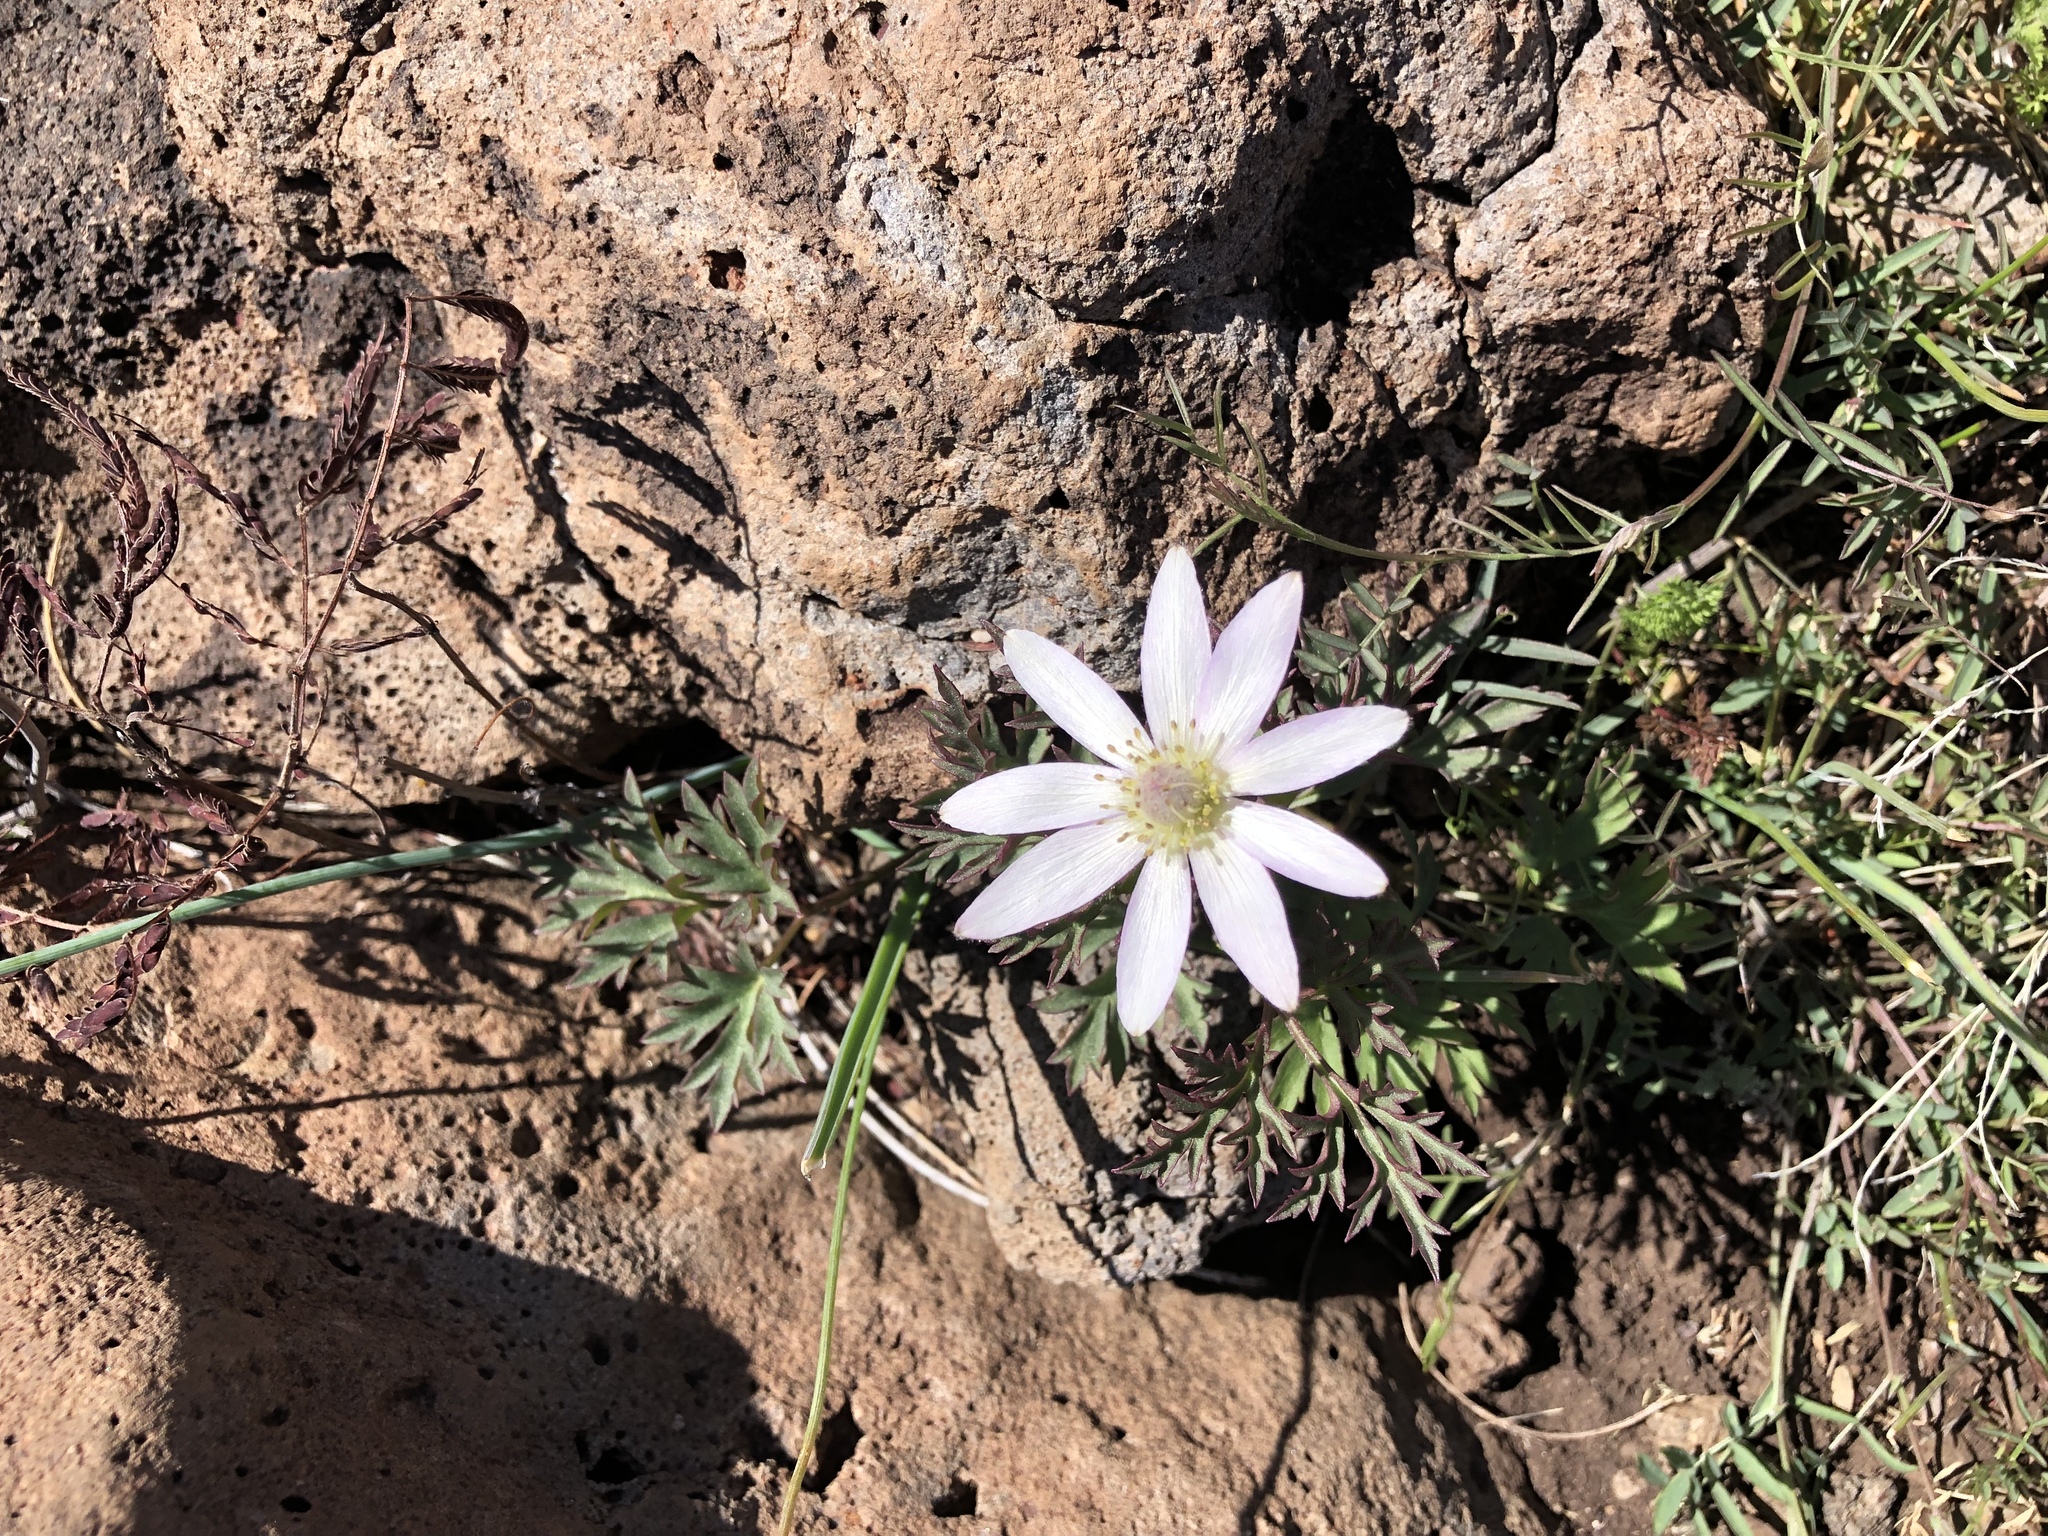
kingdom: Plantae
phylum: Tracheophyta
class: Magnoliopsida
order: Ranunculales
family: Ranunculaceae
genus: Anemone
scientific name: Anemone tuberosa
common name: Desert anemone
